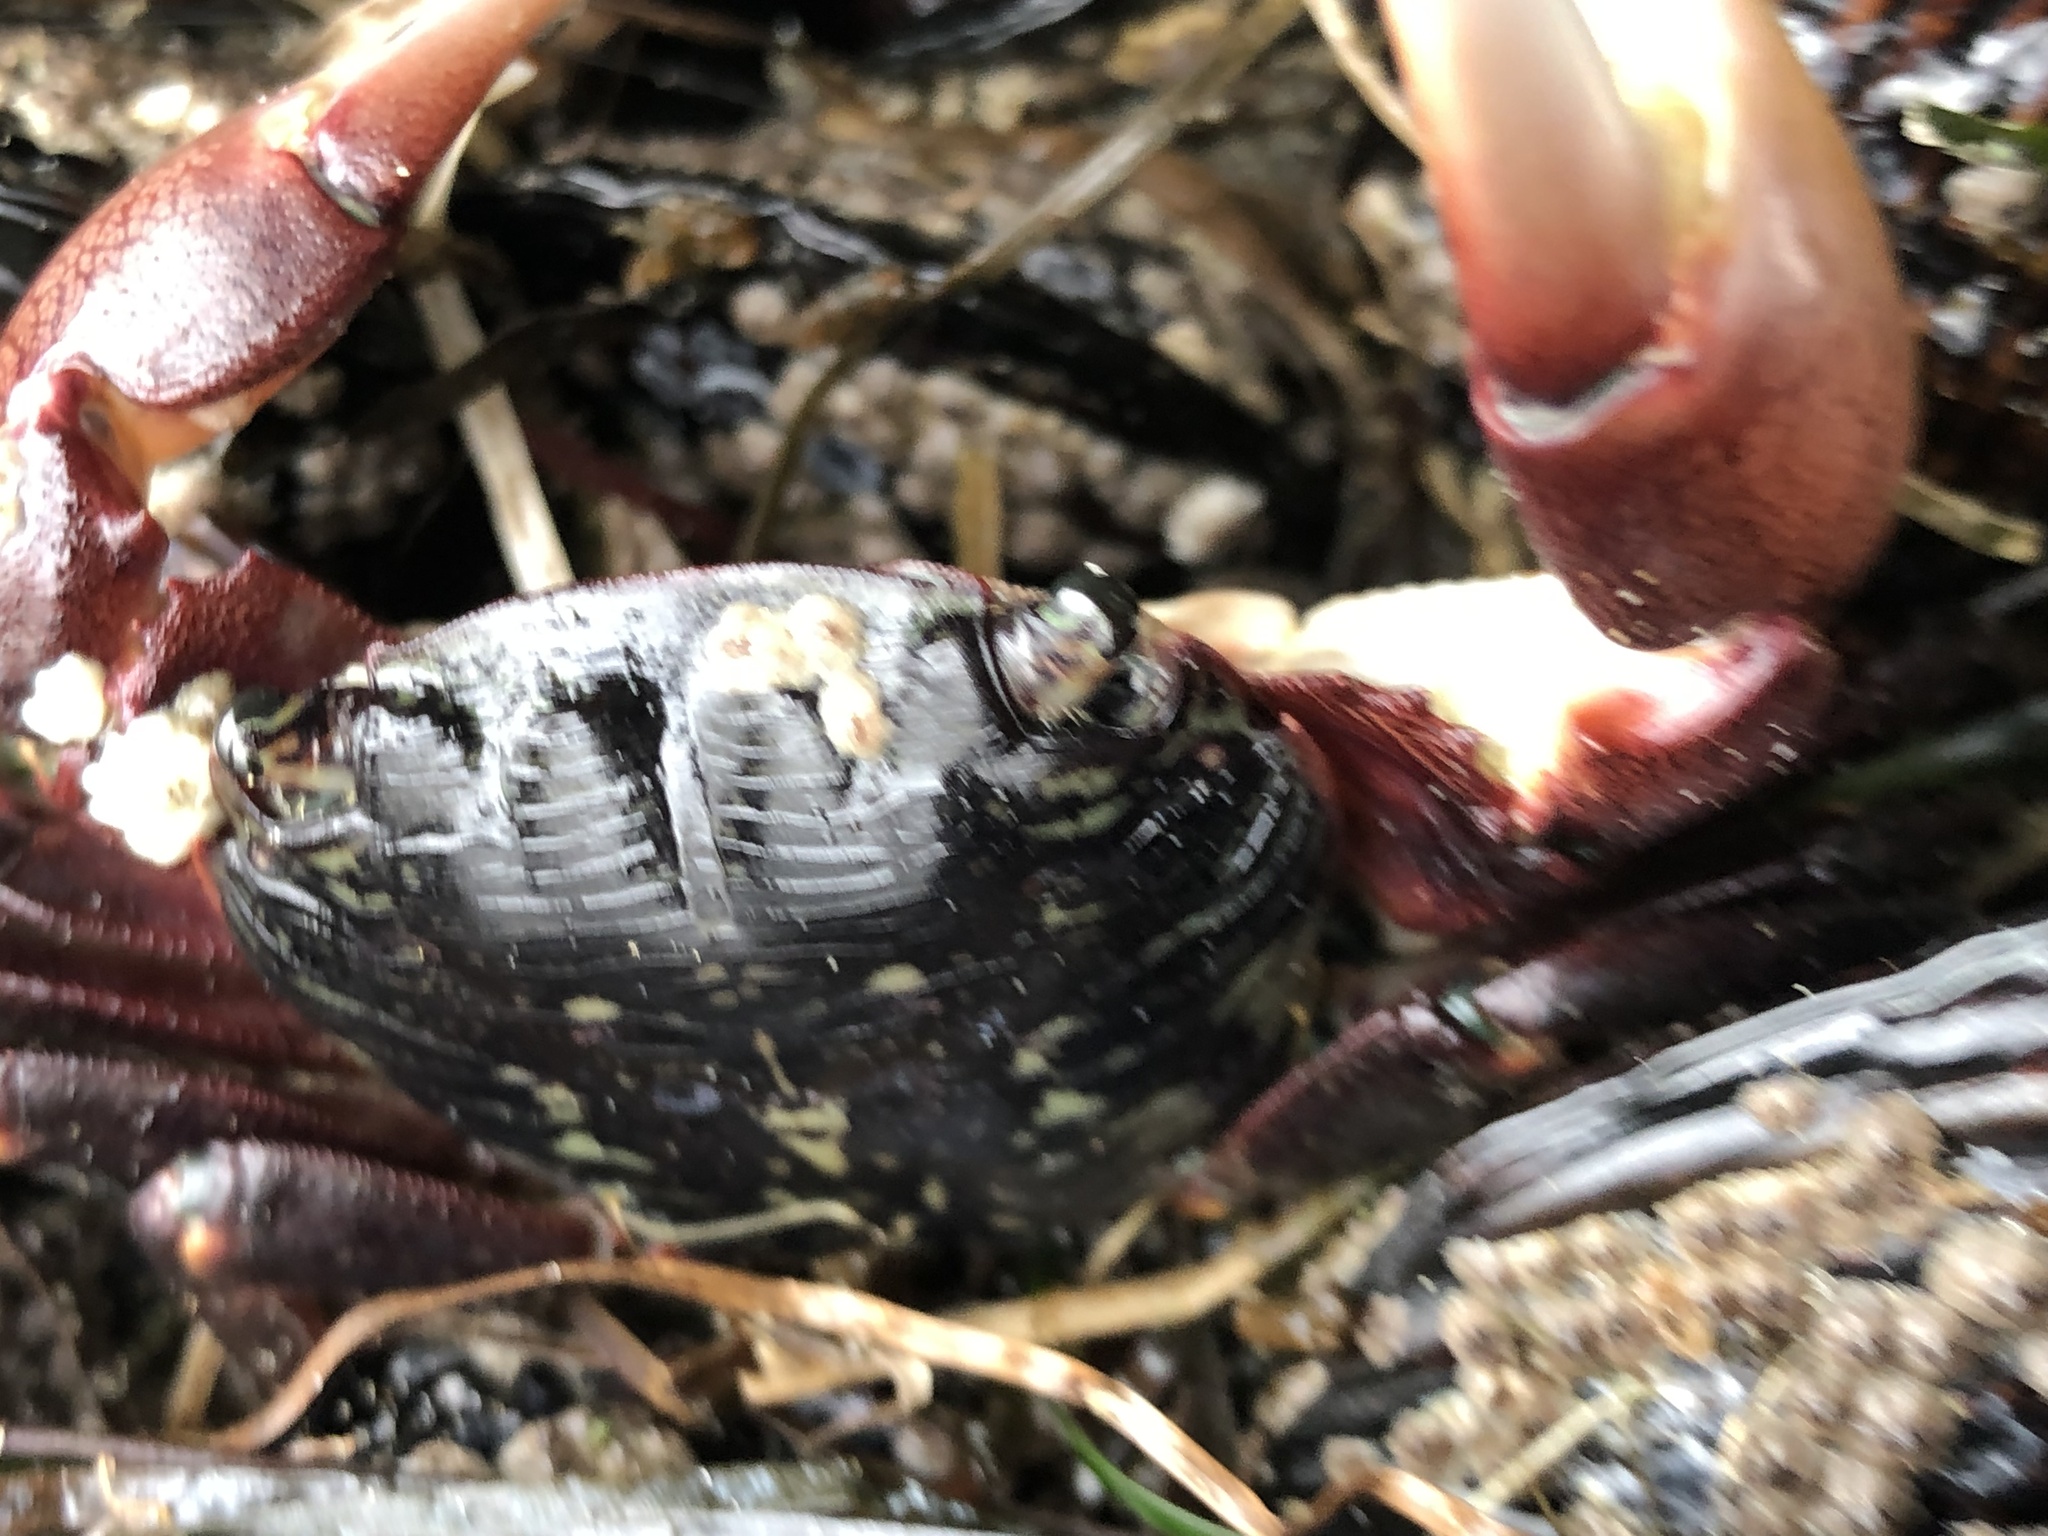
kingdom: Animalia
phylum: Arthropoda
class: Malacostraca
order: Decapoda
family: Grapsidae
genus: Pachygrapsus
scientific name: Pachygrapsus crassipes
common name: Striped shore crab
